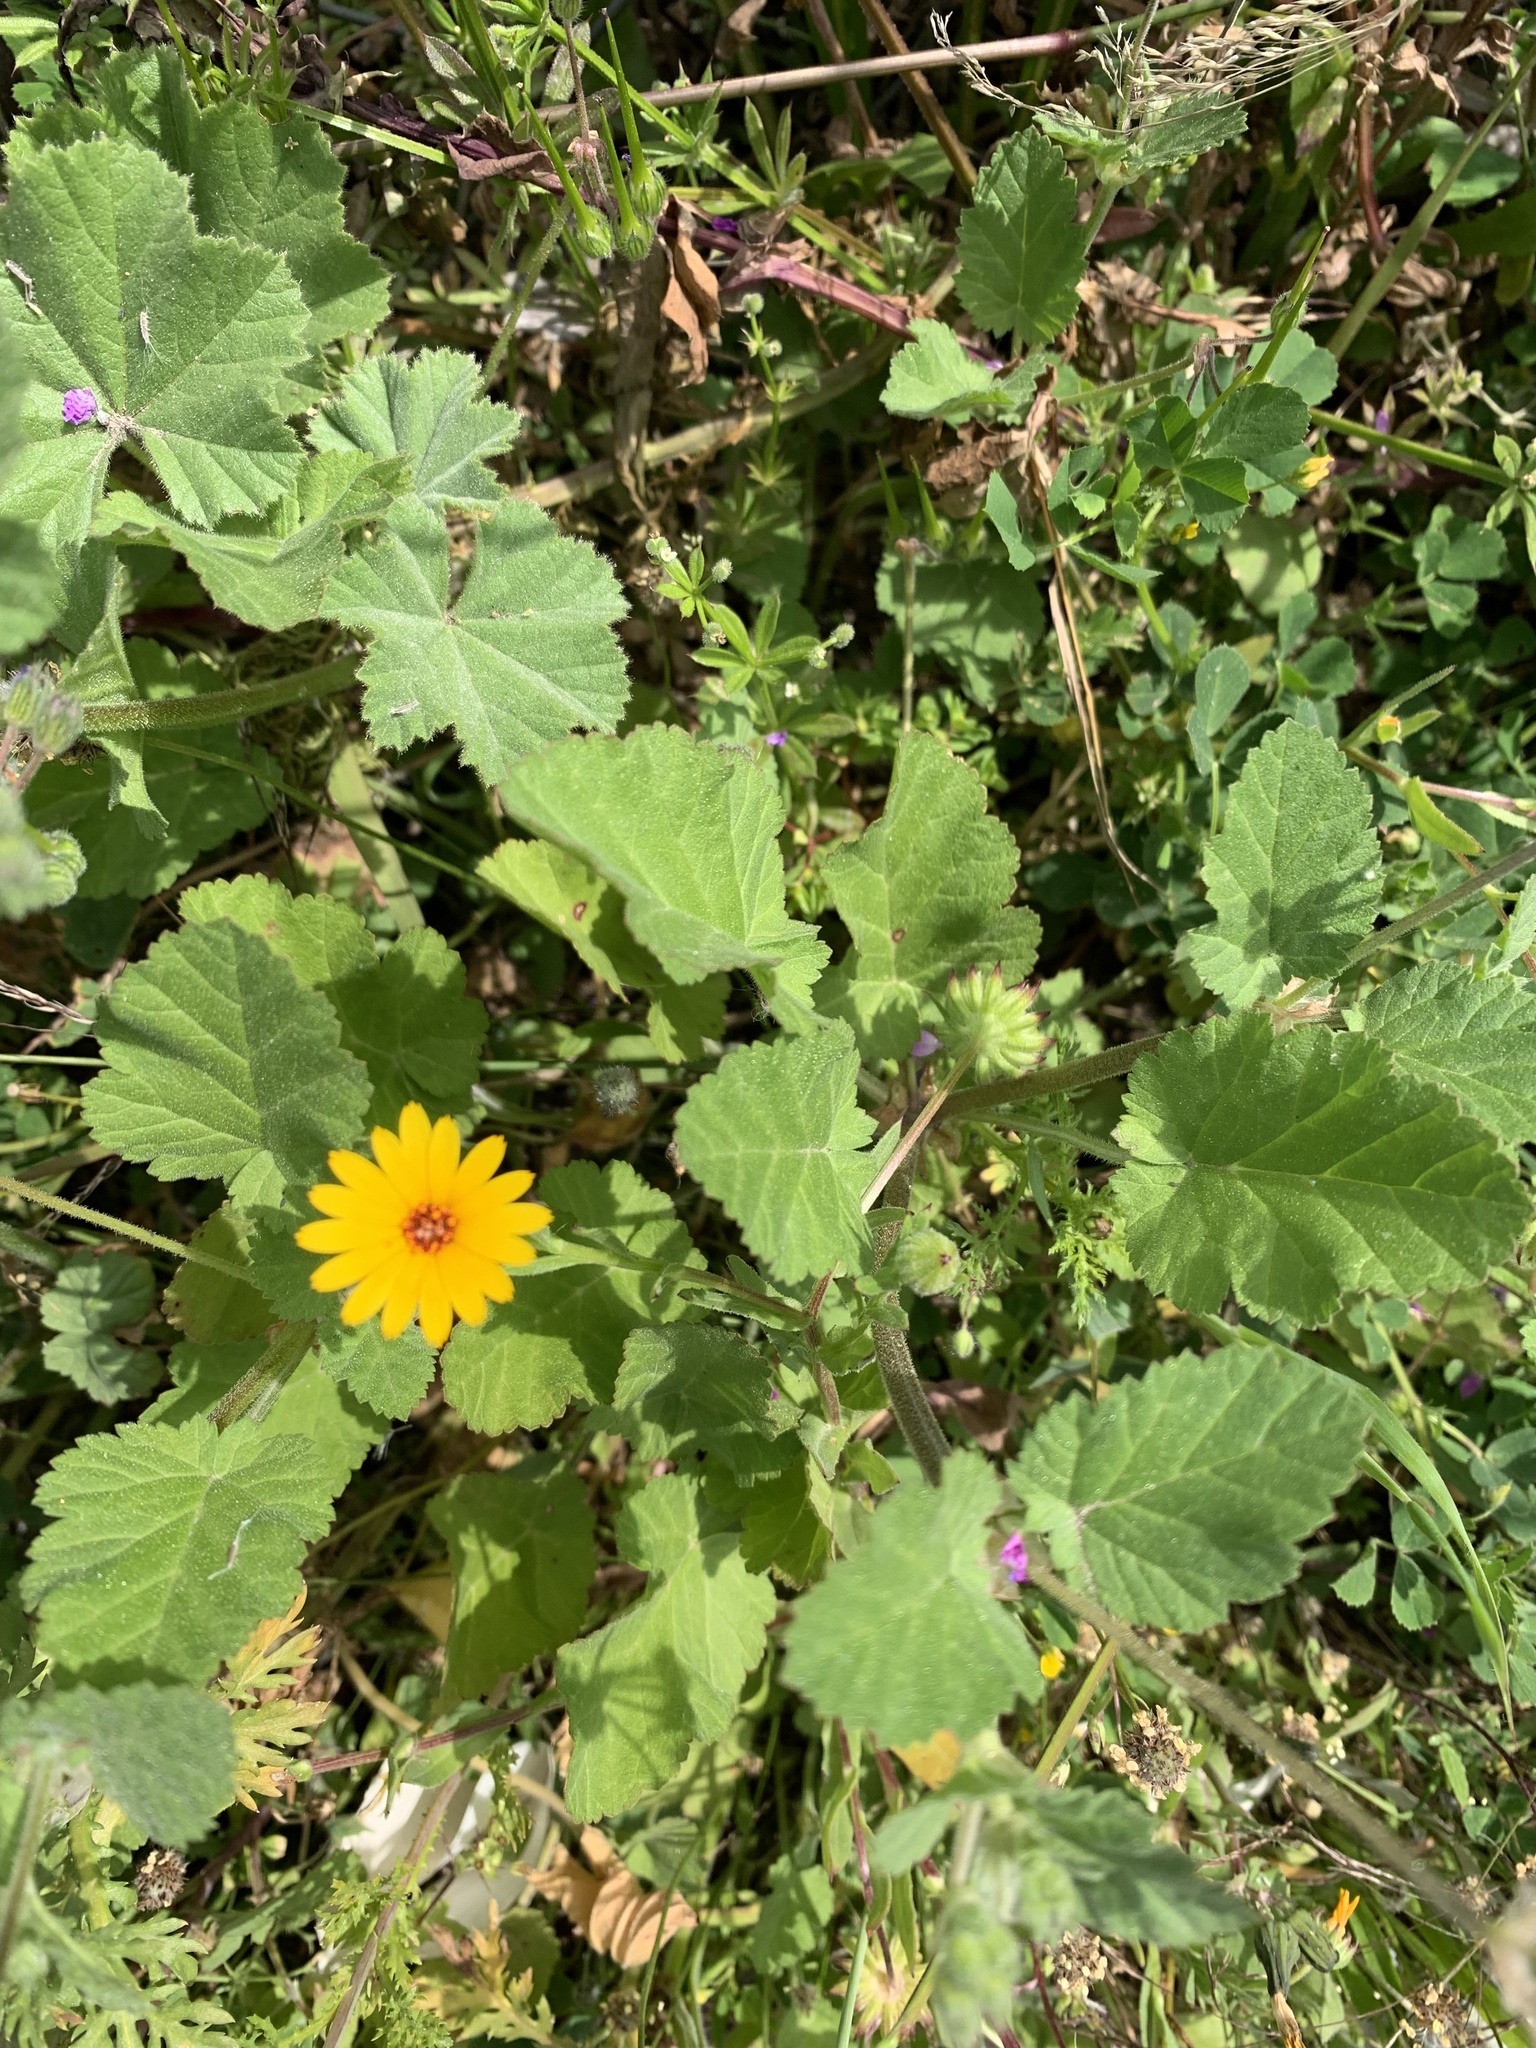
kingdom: Plantae
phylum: Tracheophyta
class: Magnoliopsida
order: Asterales
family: Asteraceae
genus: Calendula
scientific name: Calendula arvensis
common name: Field marigold
